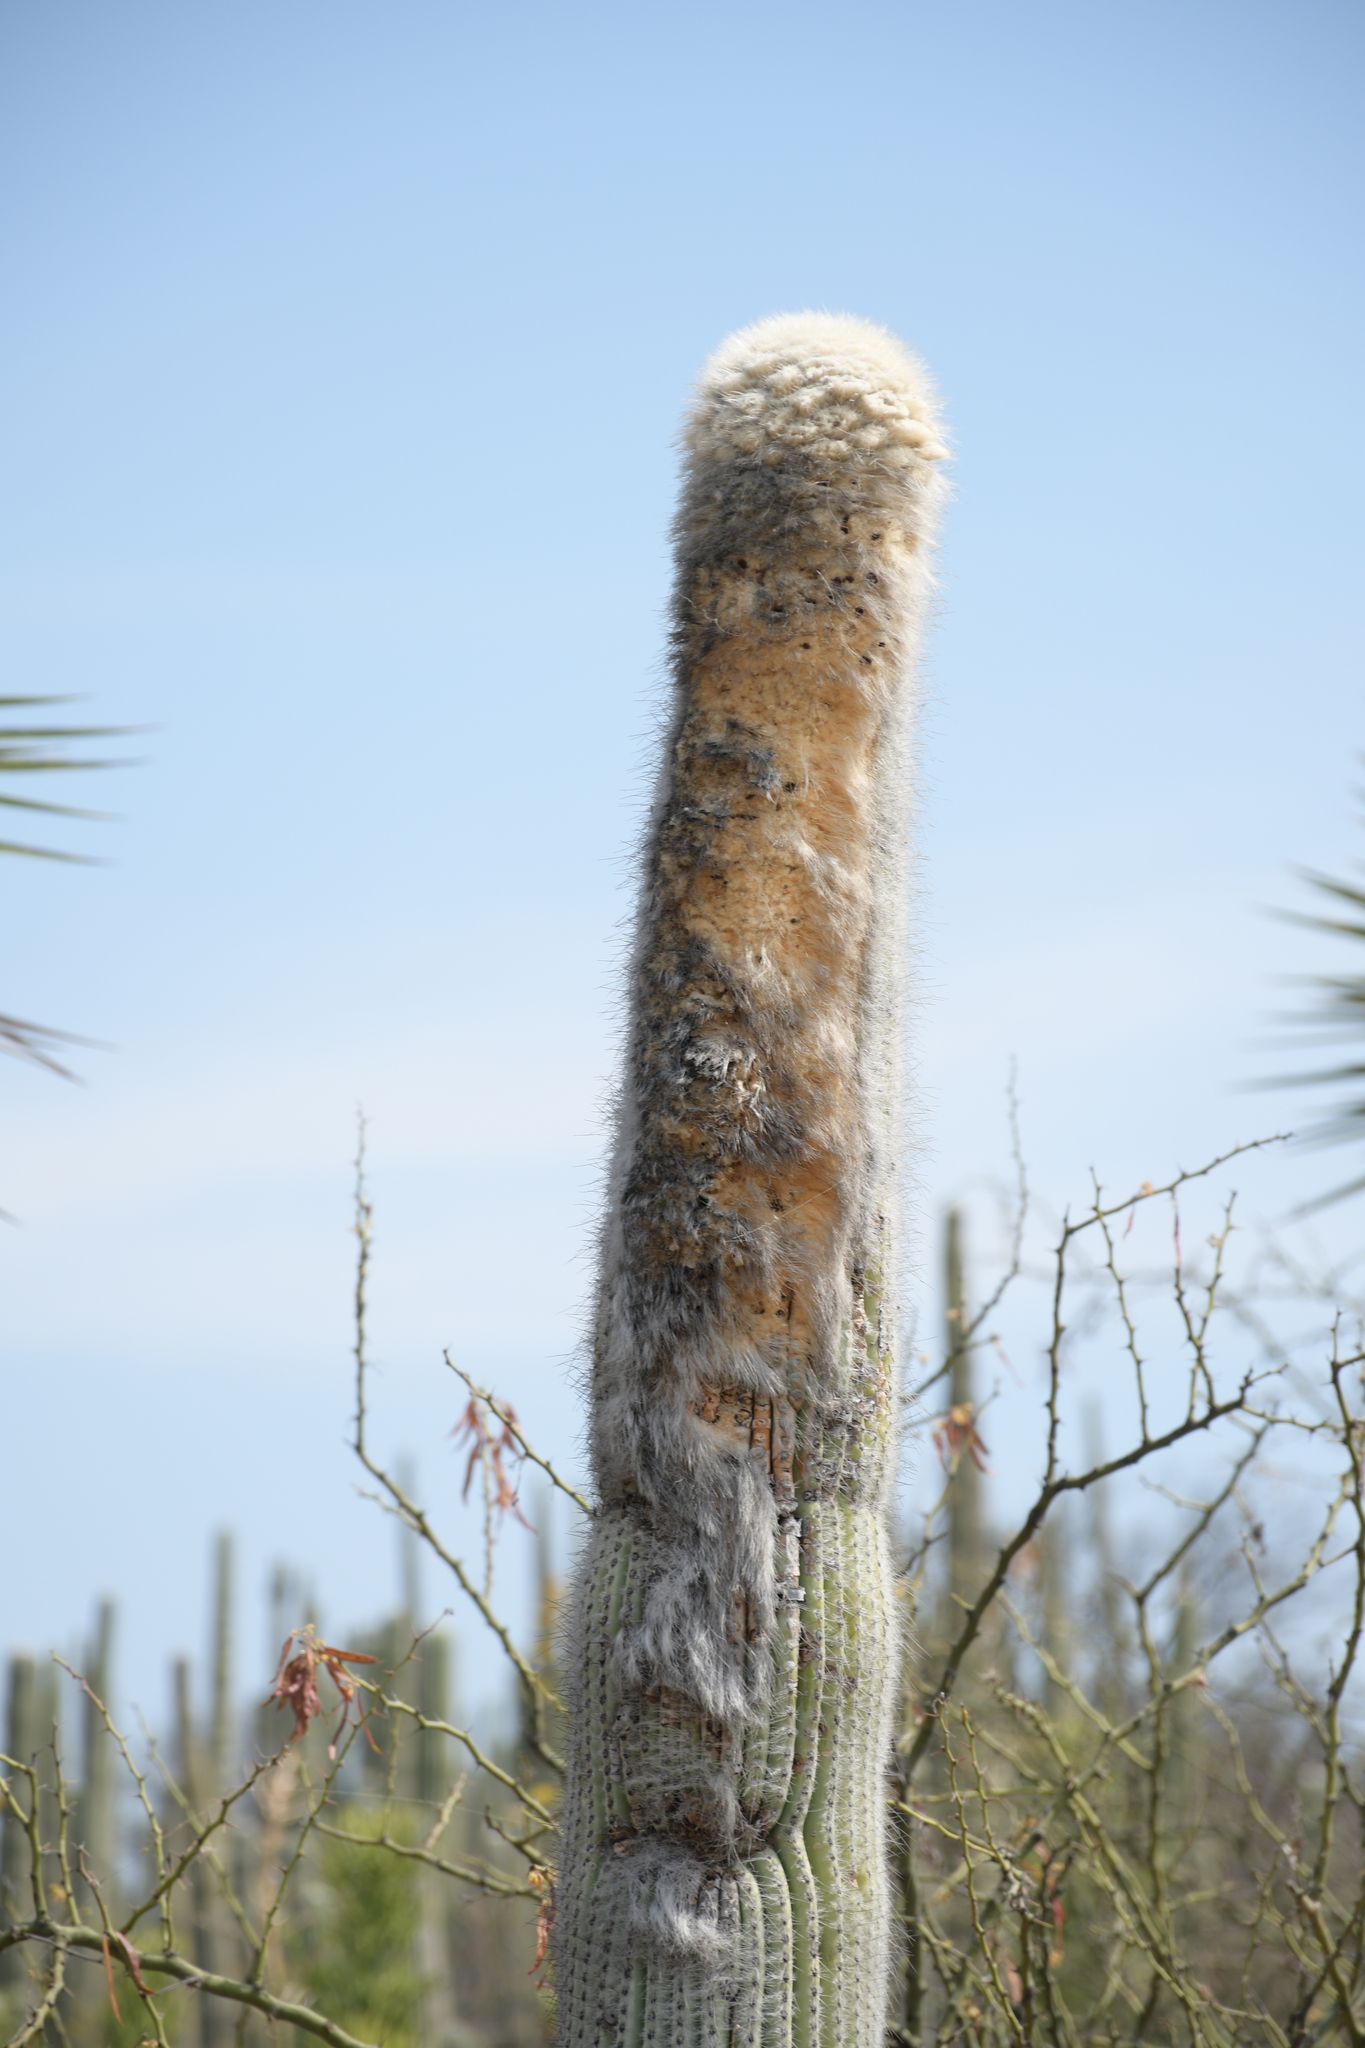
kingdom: Plantae
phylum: Tracheophyta
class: Magnoliopsida
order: Caryophyllales
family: Cactaceae
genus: Cephalocereus
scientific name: Cephalocereus columna-trajani
